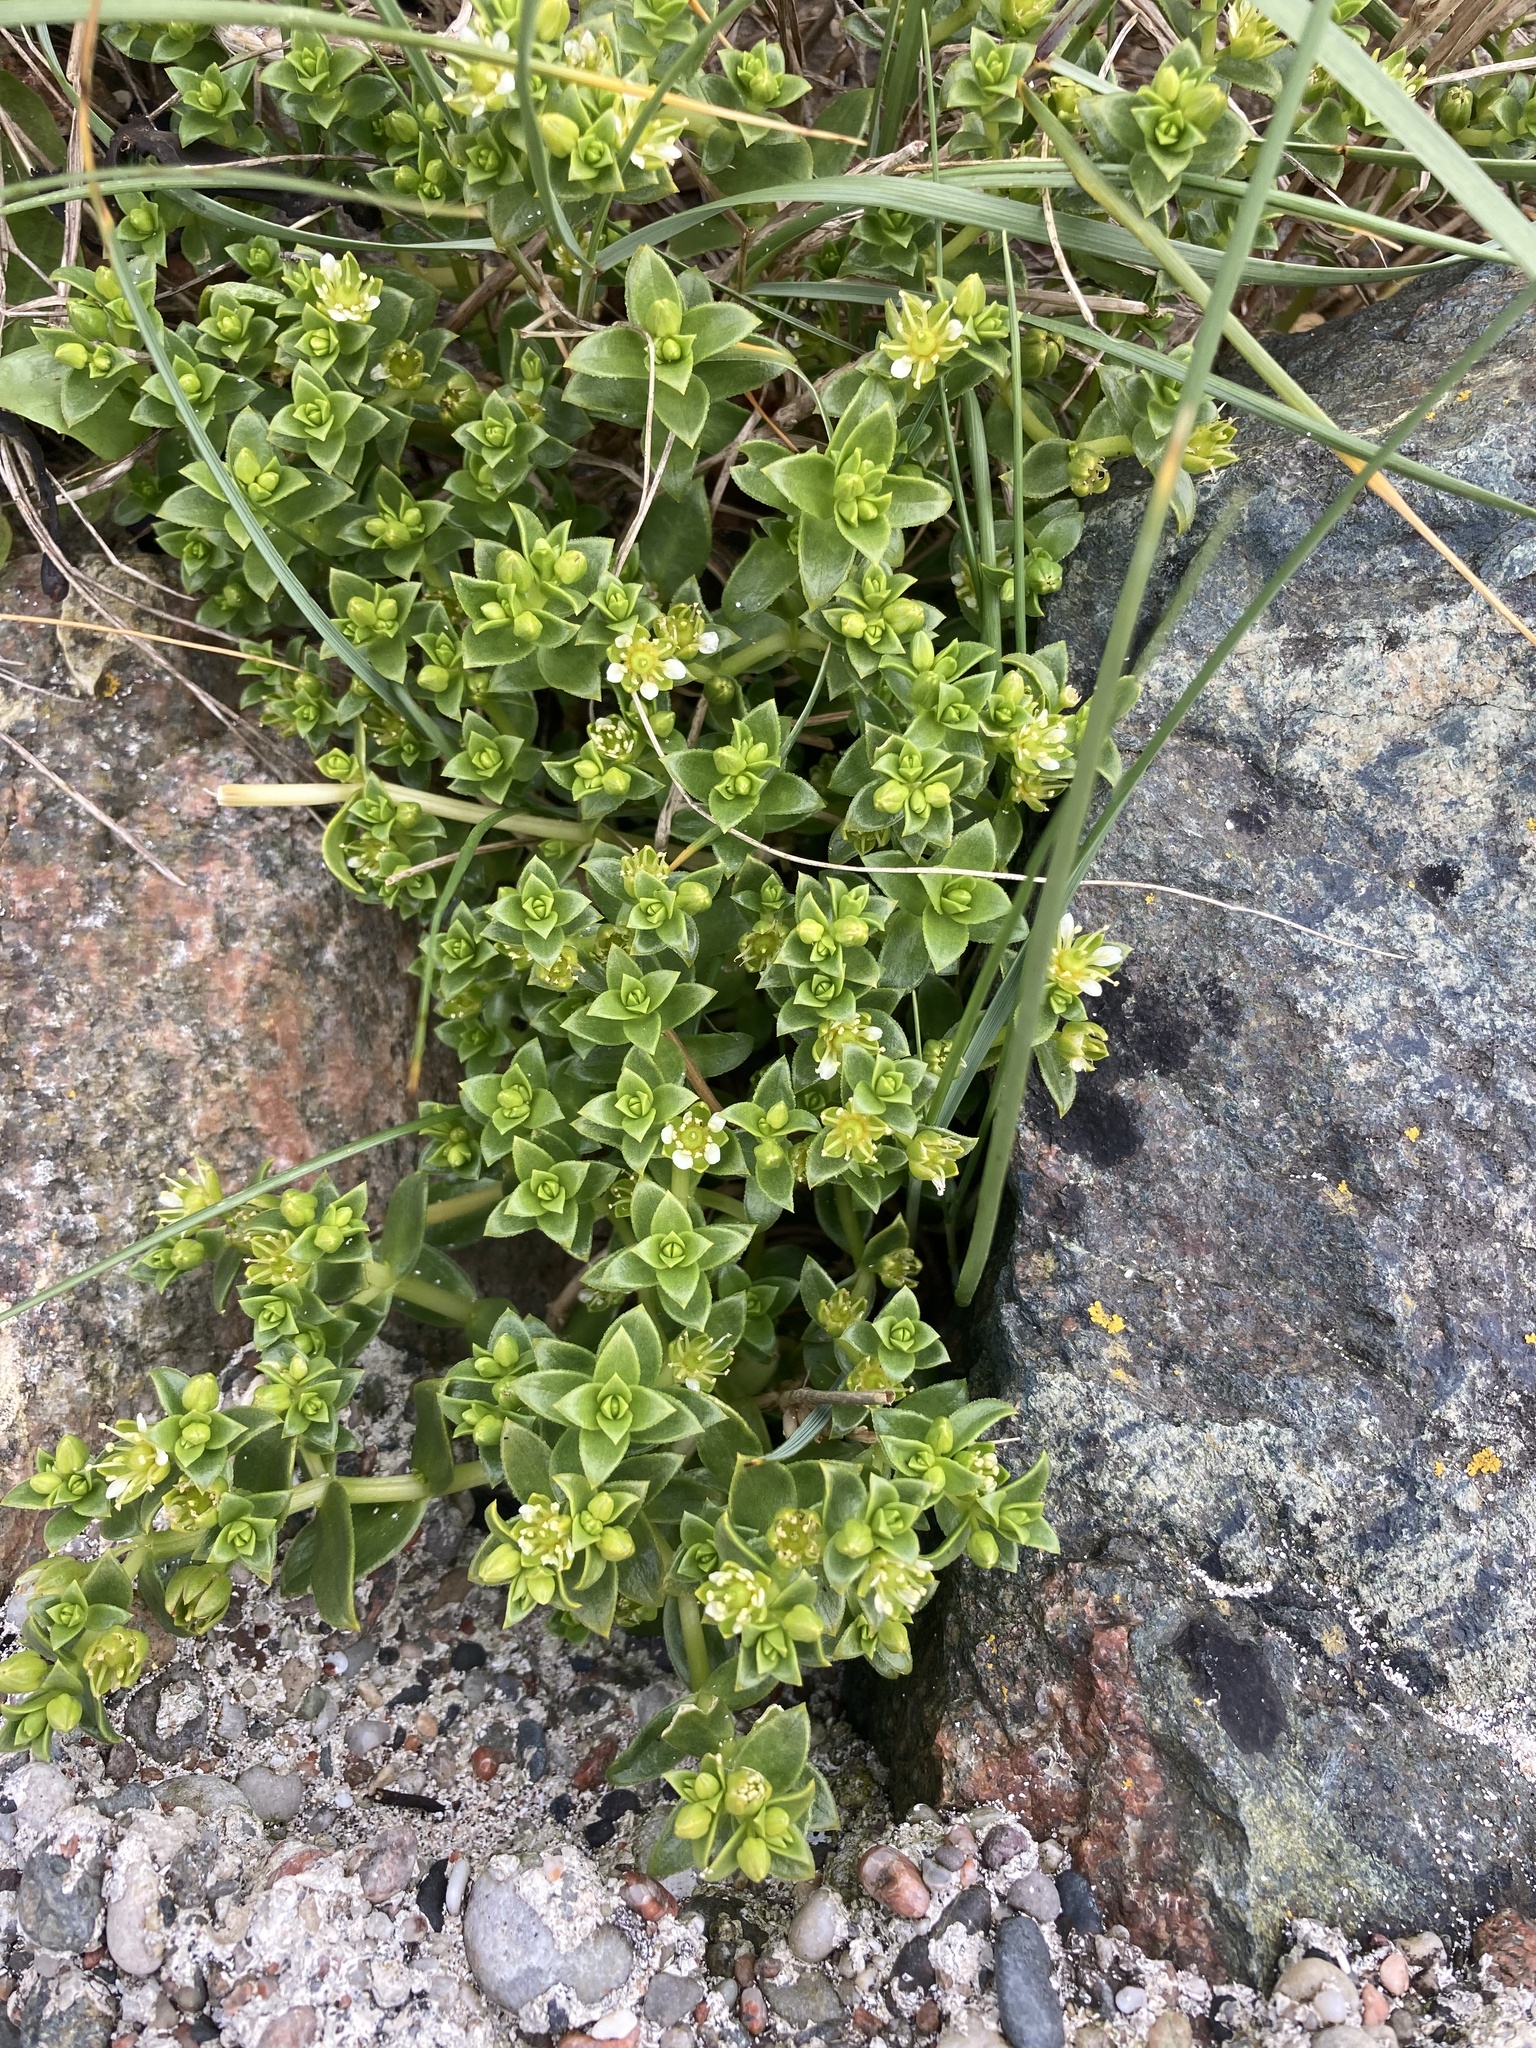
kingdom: Plantae
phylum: Tracheophyta
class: Magnoliopsida
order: Caryophyllales
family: Caryophyllaceae
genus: Honckenya
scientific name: Honckenya peploides
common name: Sea sandwort
